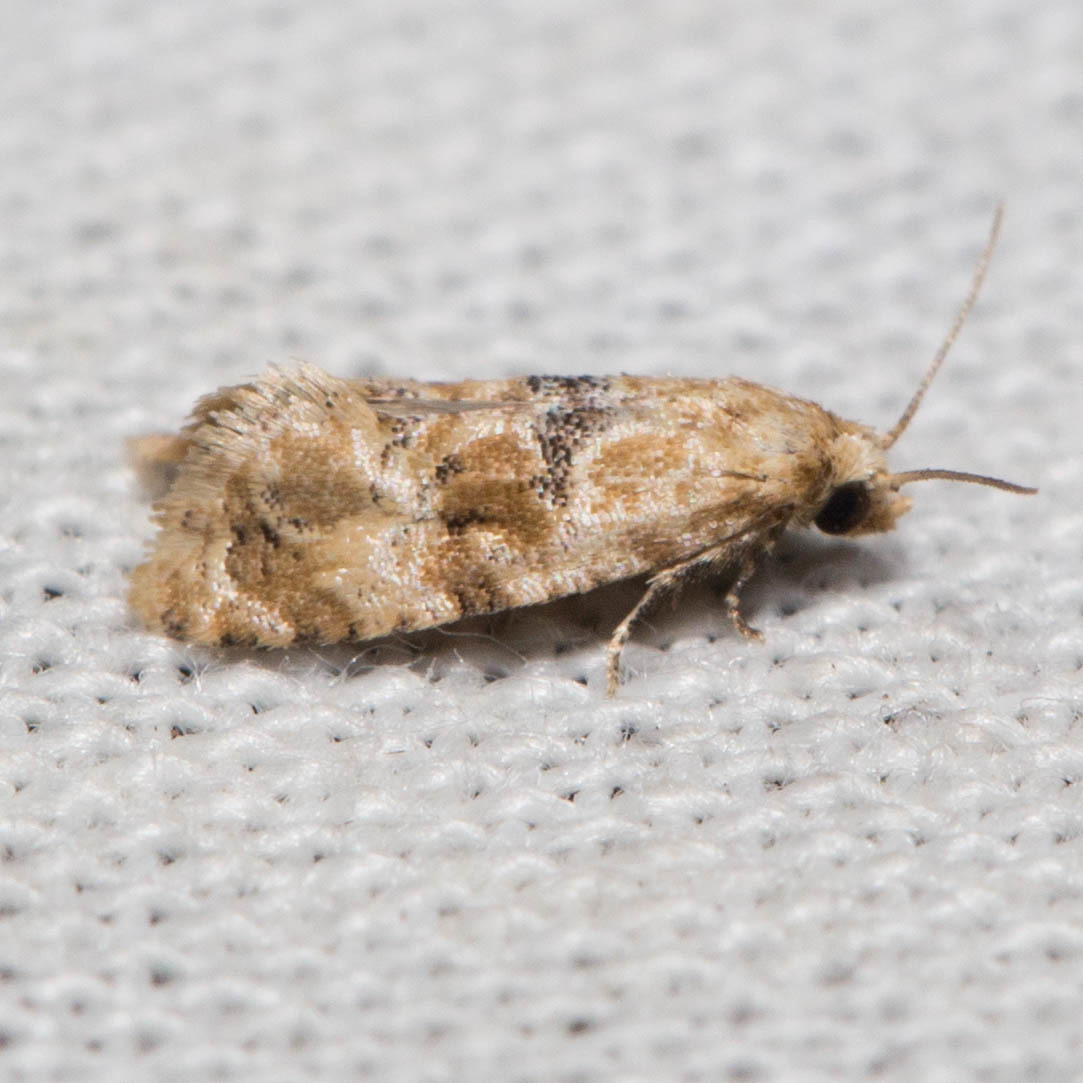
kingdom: Animalia
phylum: Arthropoda
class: Insecta
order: Lepidoptera
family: Tortricidae
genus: Lorita
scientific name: Lorita scarificata
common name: Chrysanthemum flower borer
